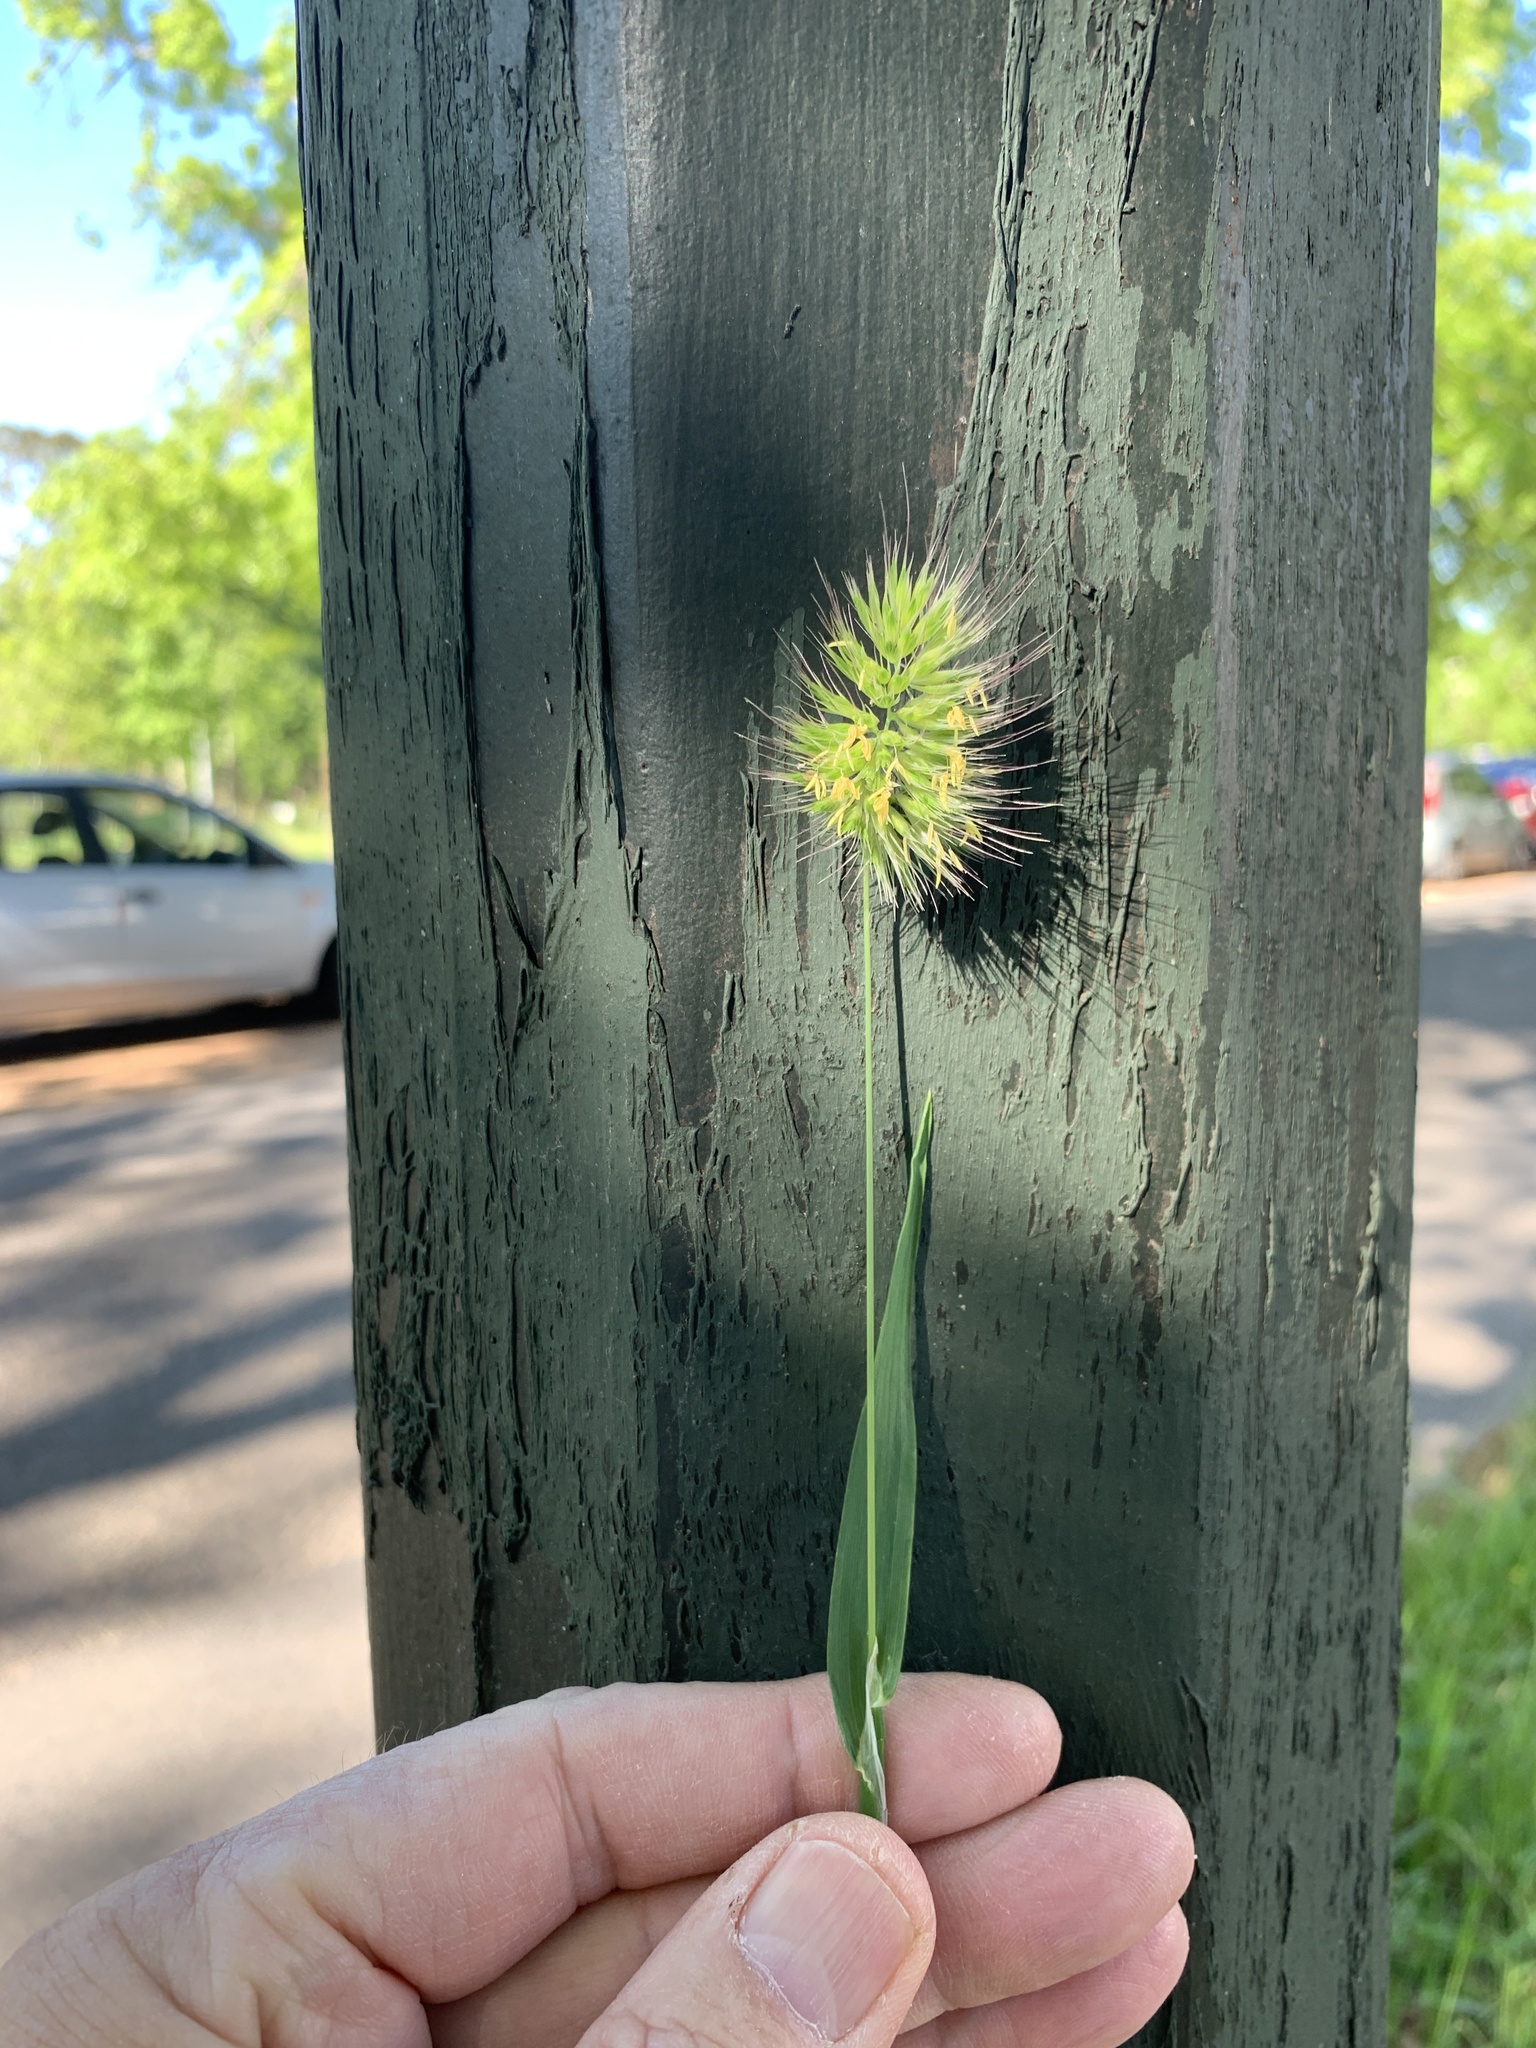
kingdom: Plantae
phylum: Tracheophyta
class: Liliopsida
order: Poales
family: Poaceae
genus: Cynosurus
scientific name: Cynosurus echinatus
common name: Rough dog's-tail
